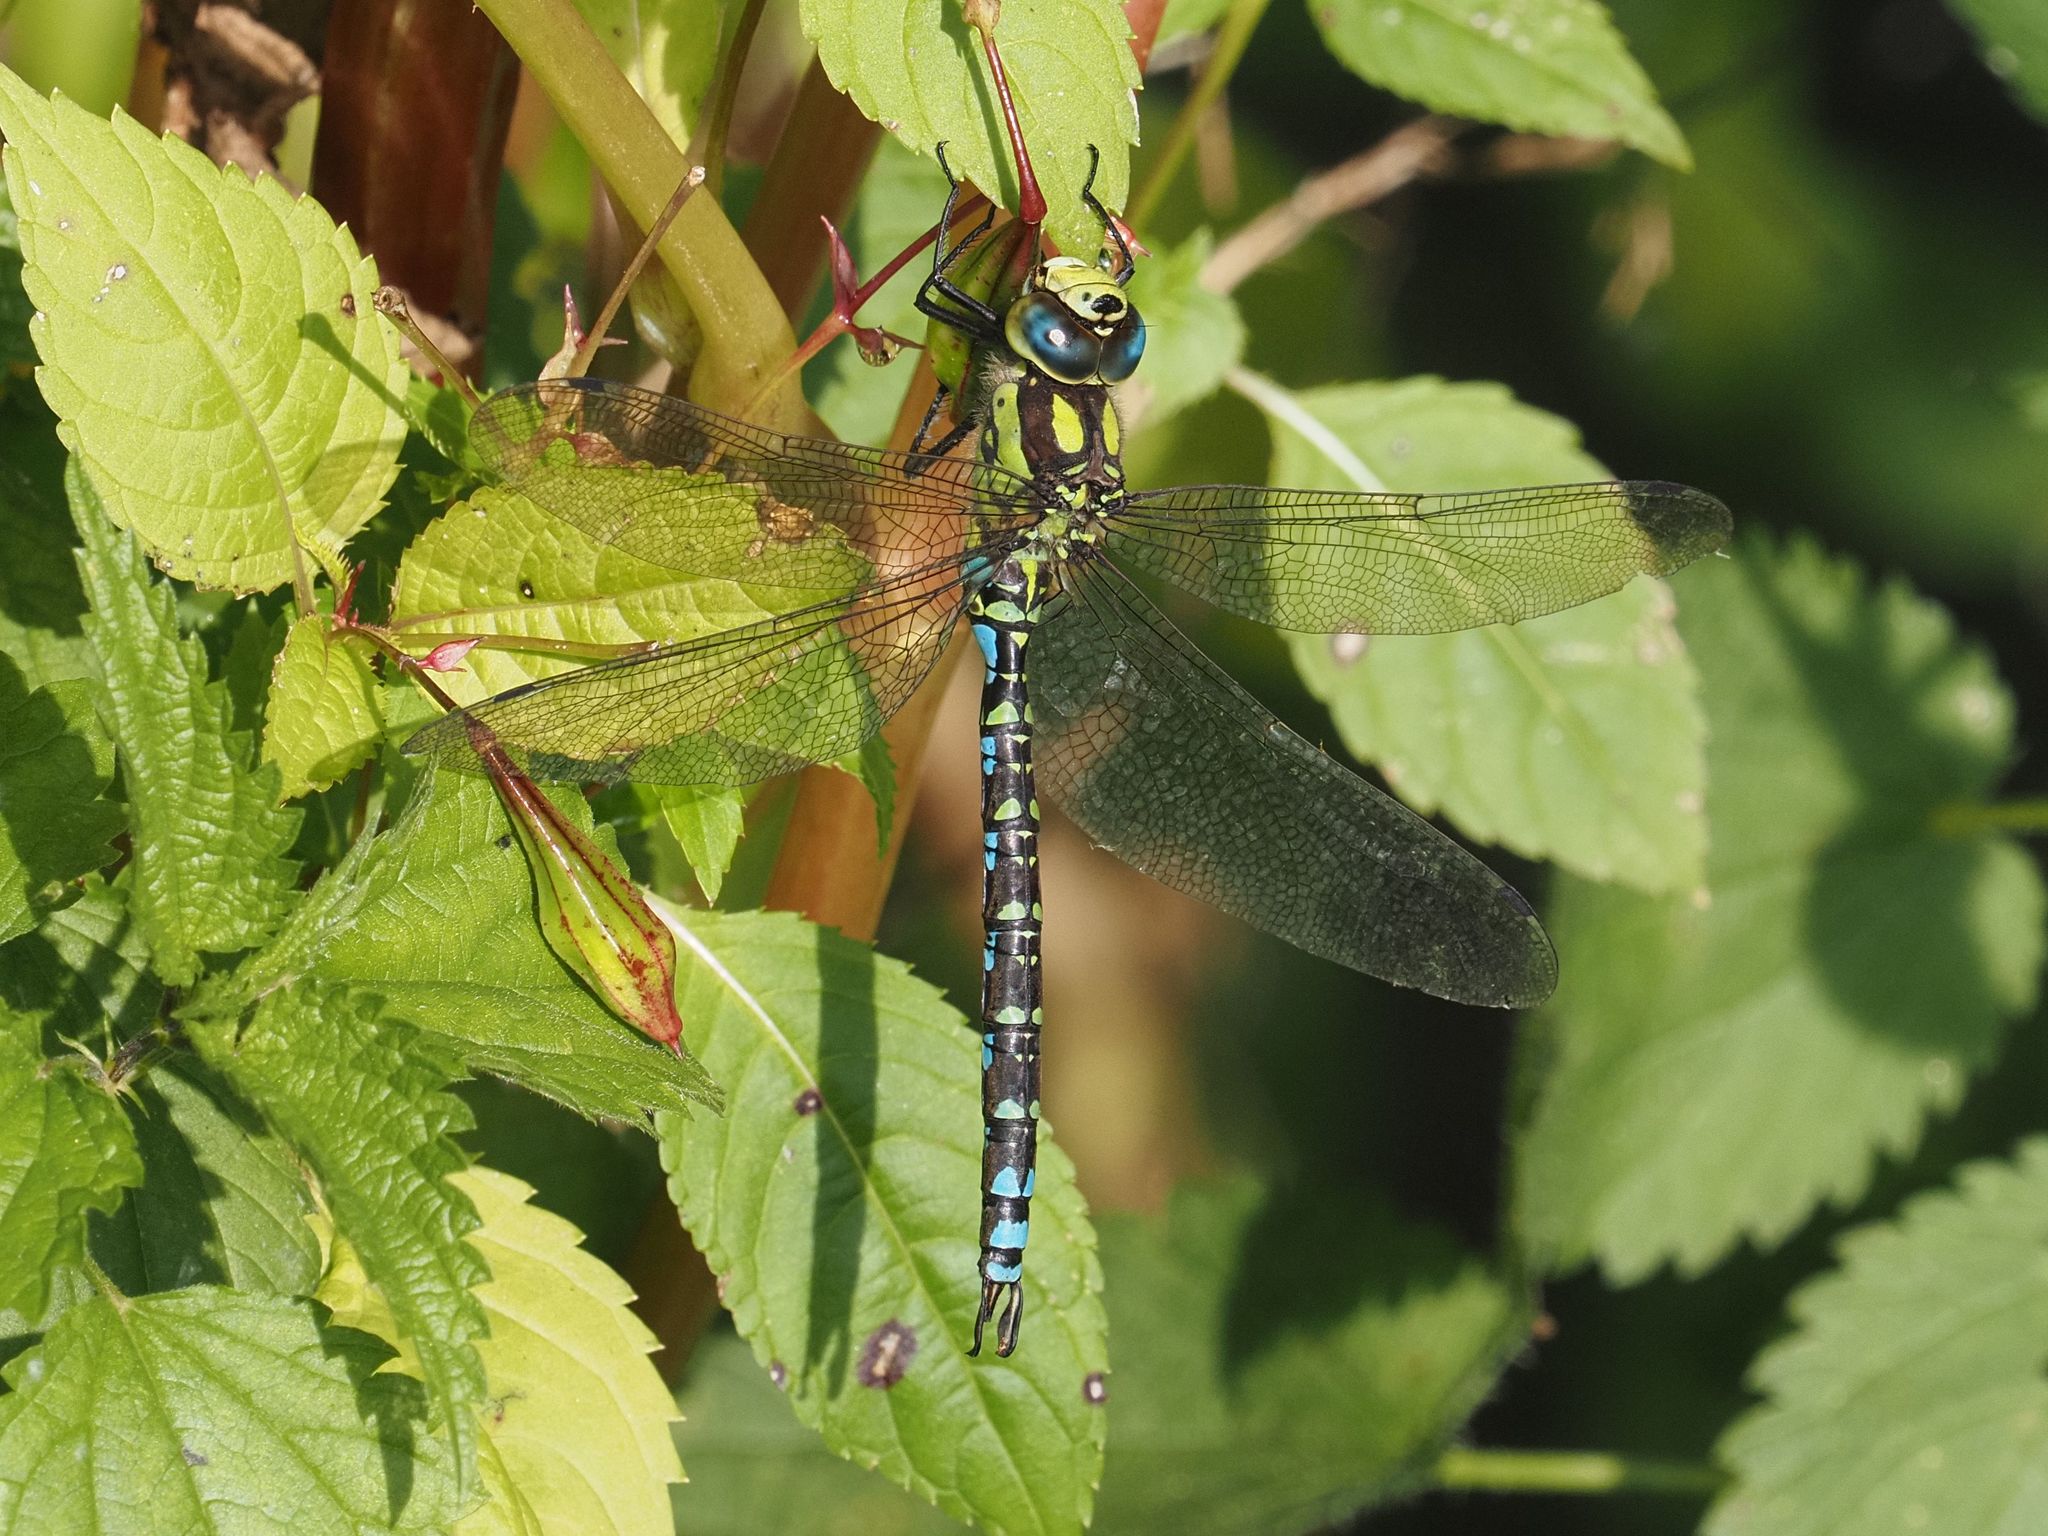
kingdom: Animalia
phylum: Arthropoda
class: Insecta
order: Odonata
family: Aeshnidae
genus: Aeshna
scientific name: Aeshna cyanea
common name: Southern hawker
